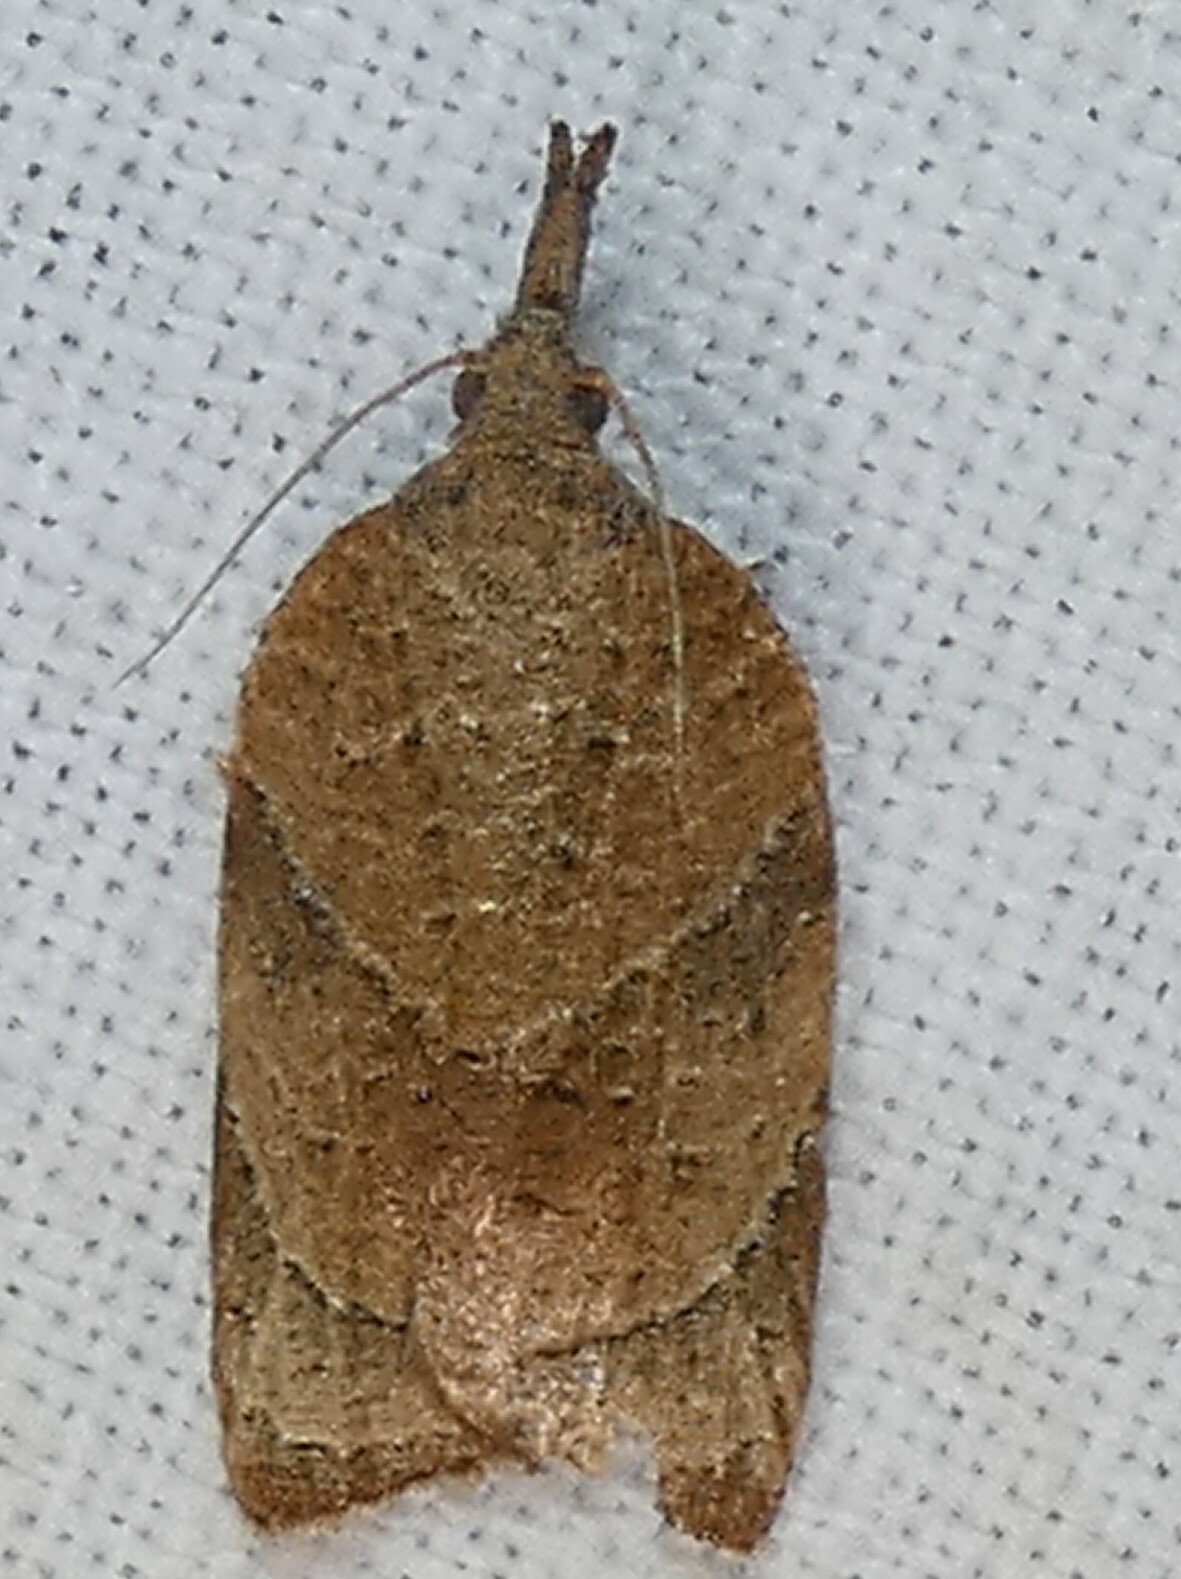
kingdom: Animalia
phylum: Arthropoda
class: Insecta
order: Lepidoptera
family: Tortricidae
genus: Platynota
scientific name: Platynota rostrana
